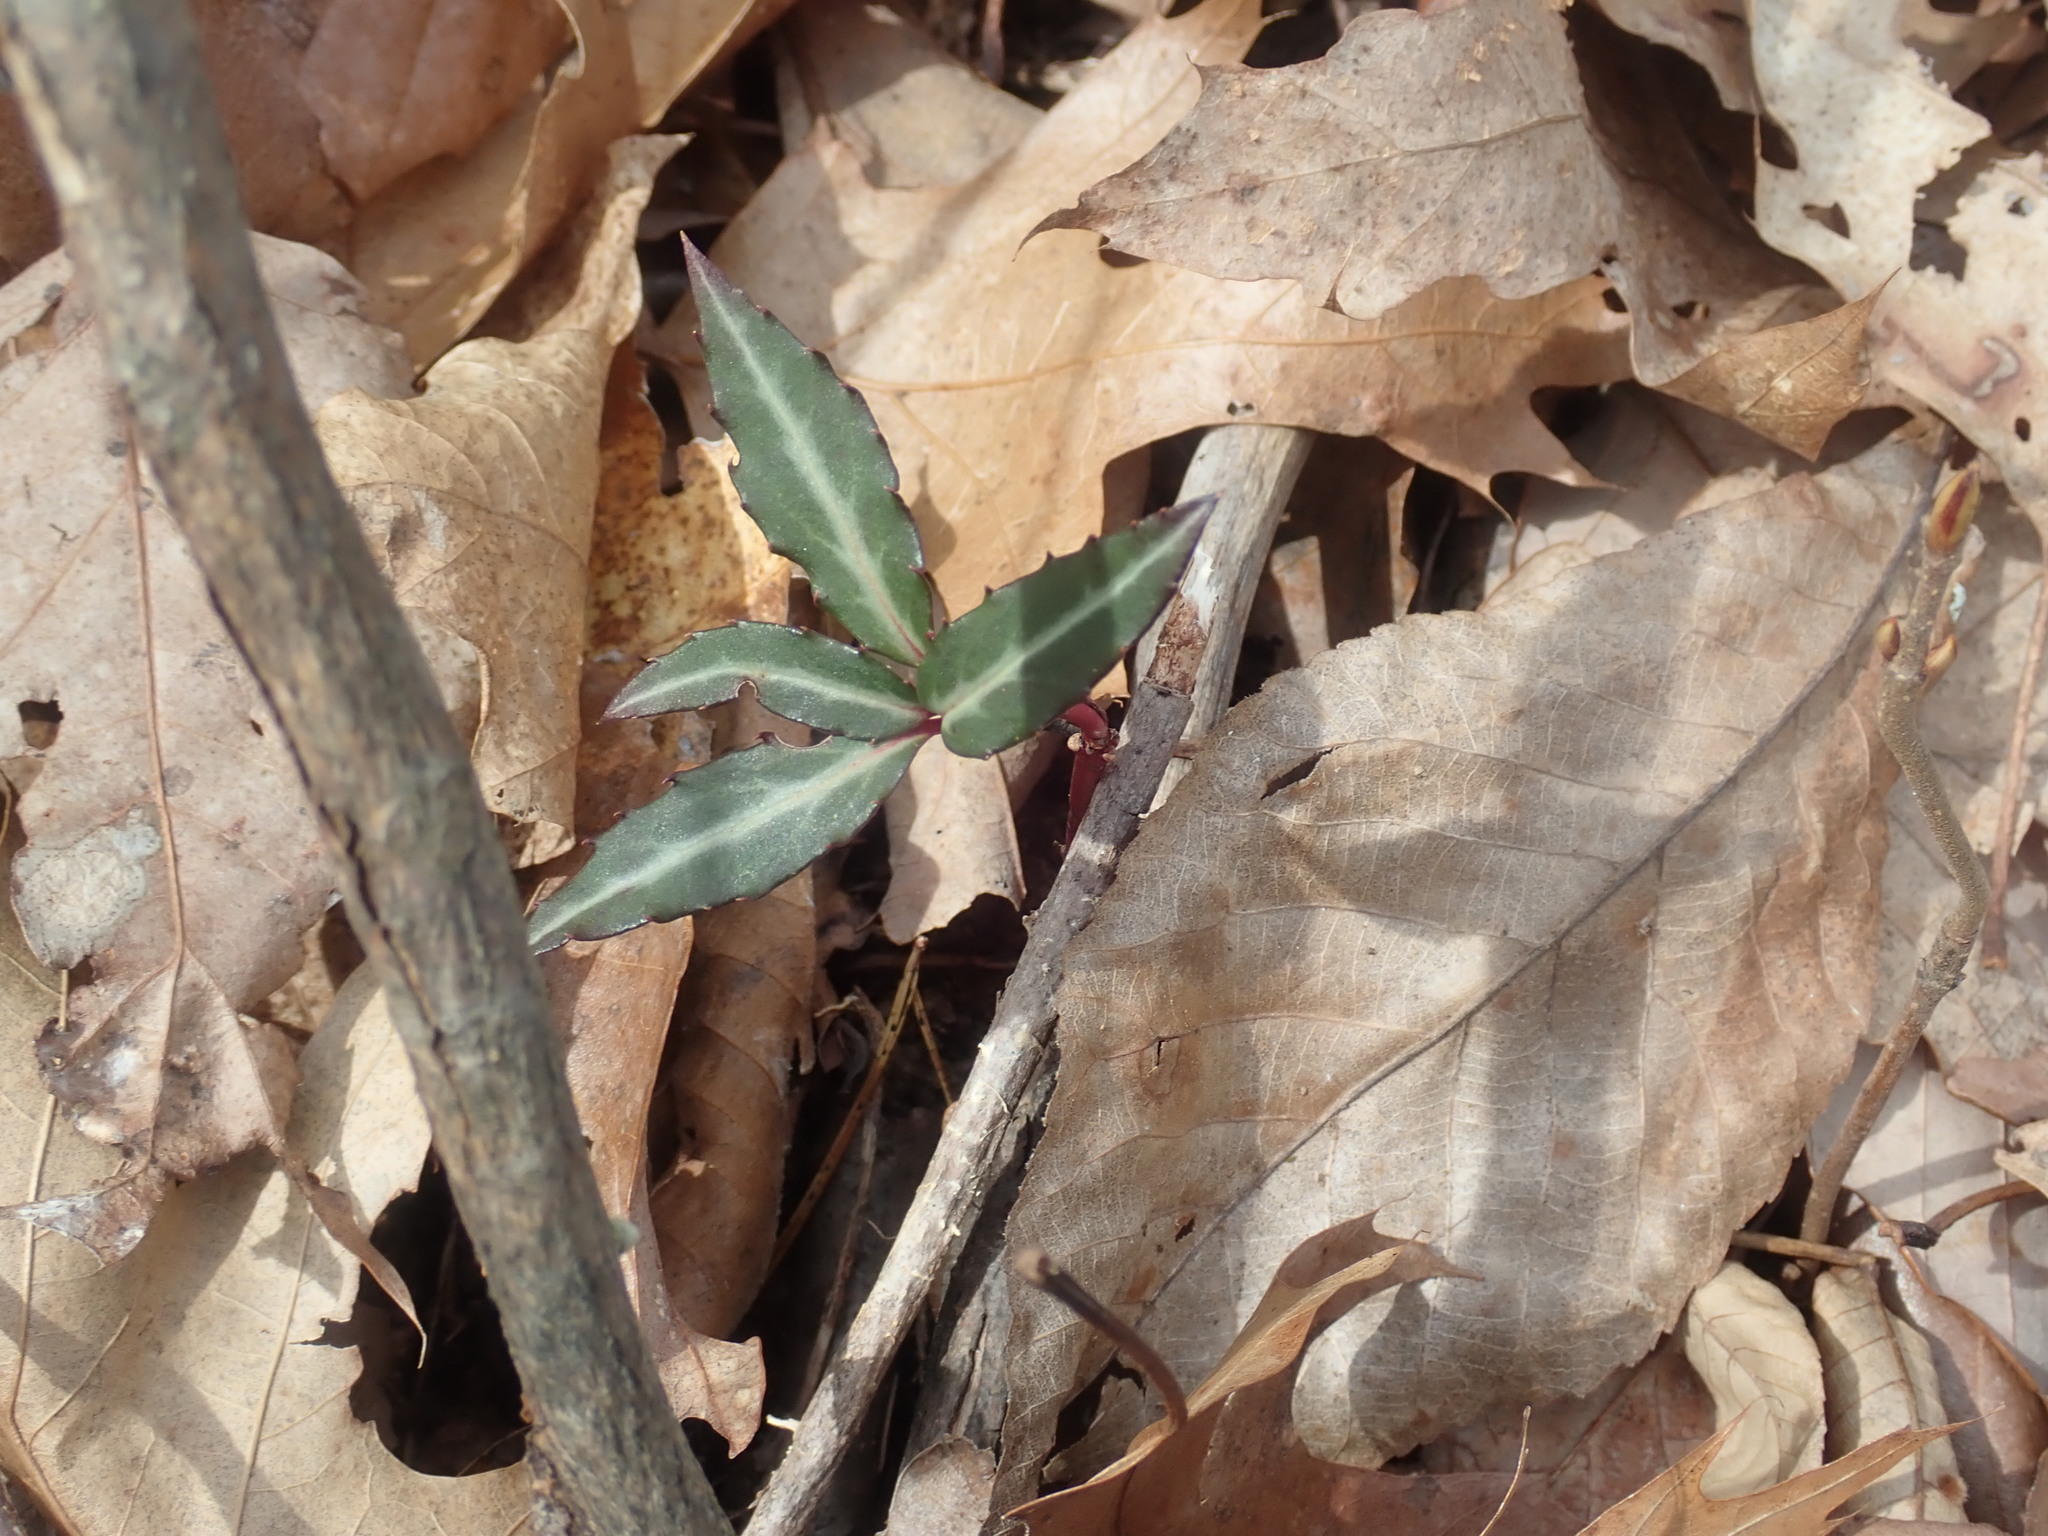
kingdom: Plantae
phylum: Tracheophyta
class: Magnoliopsida
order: Ericales
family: Ericaceae
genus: Chimaphila
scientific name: Chimaphila maculata
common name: Spotted pipsissewa
